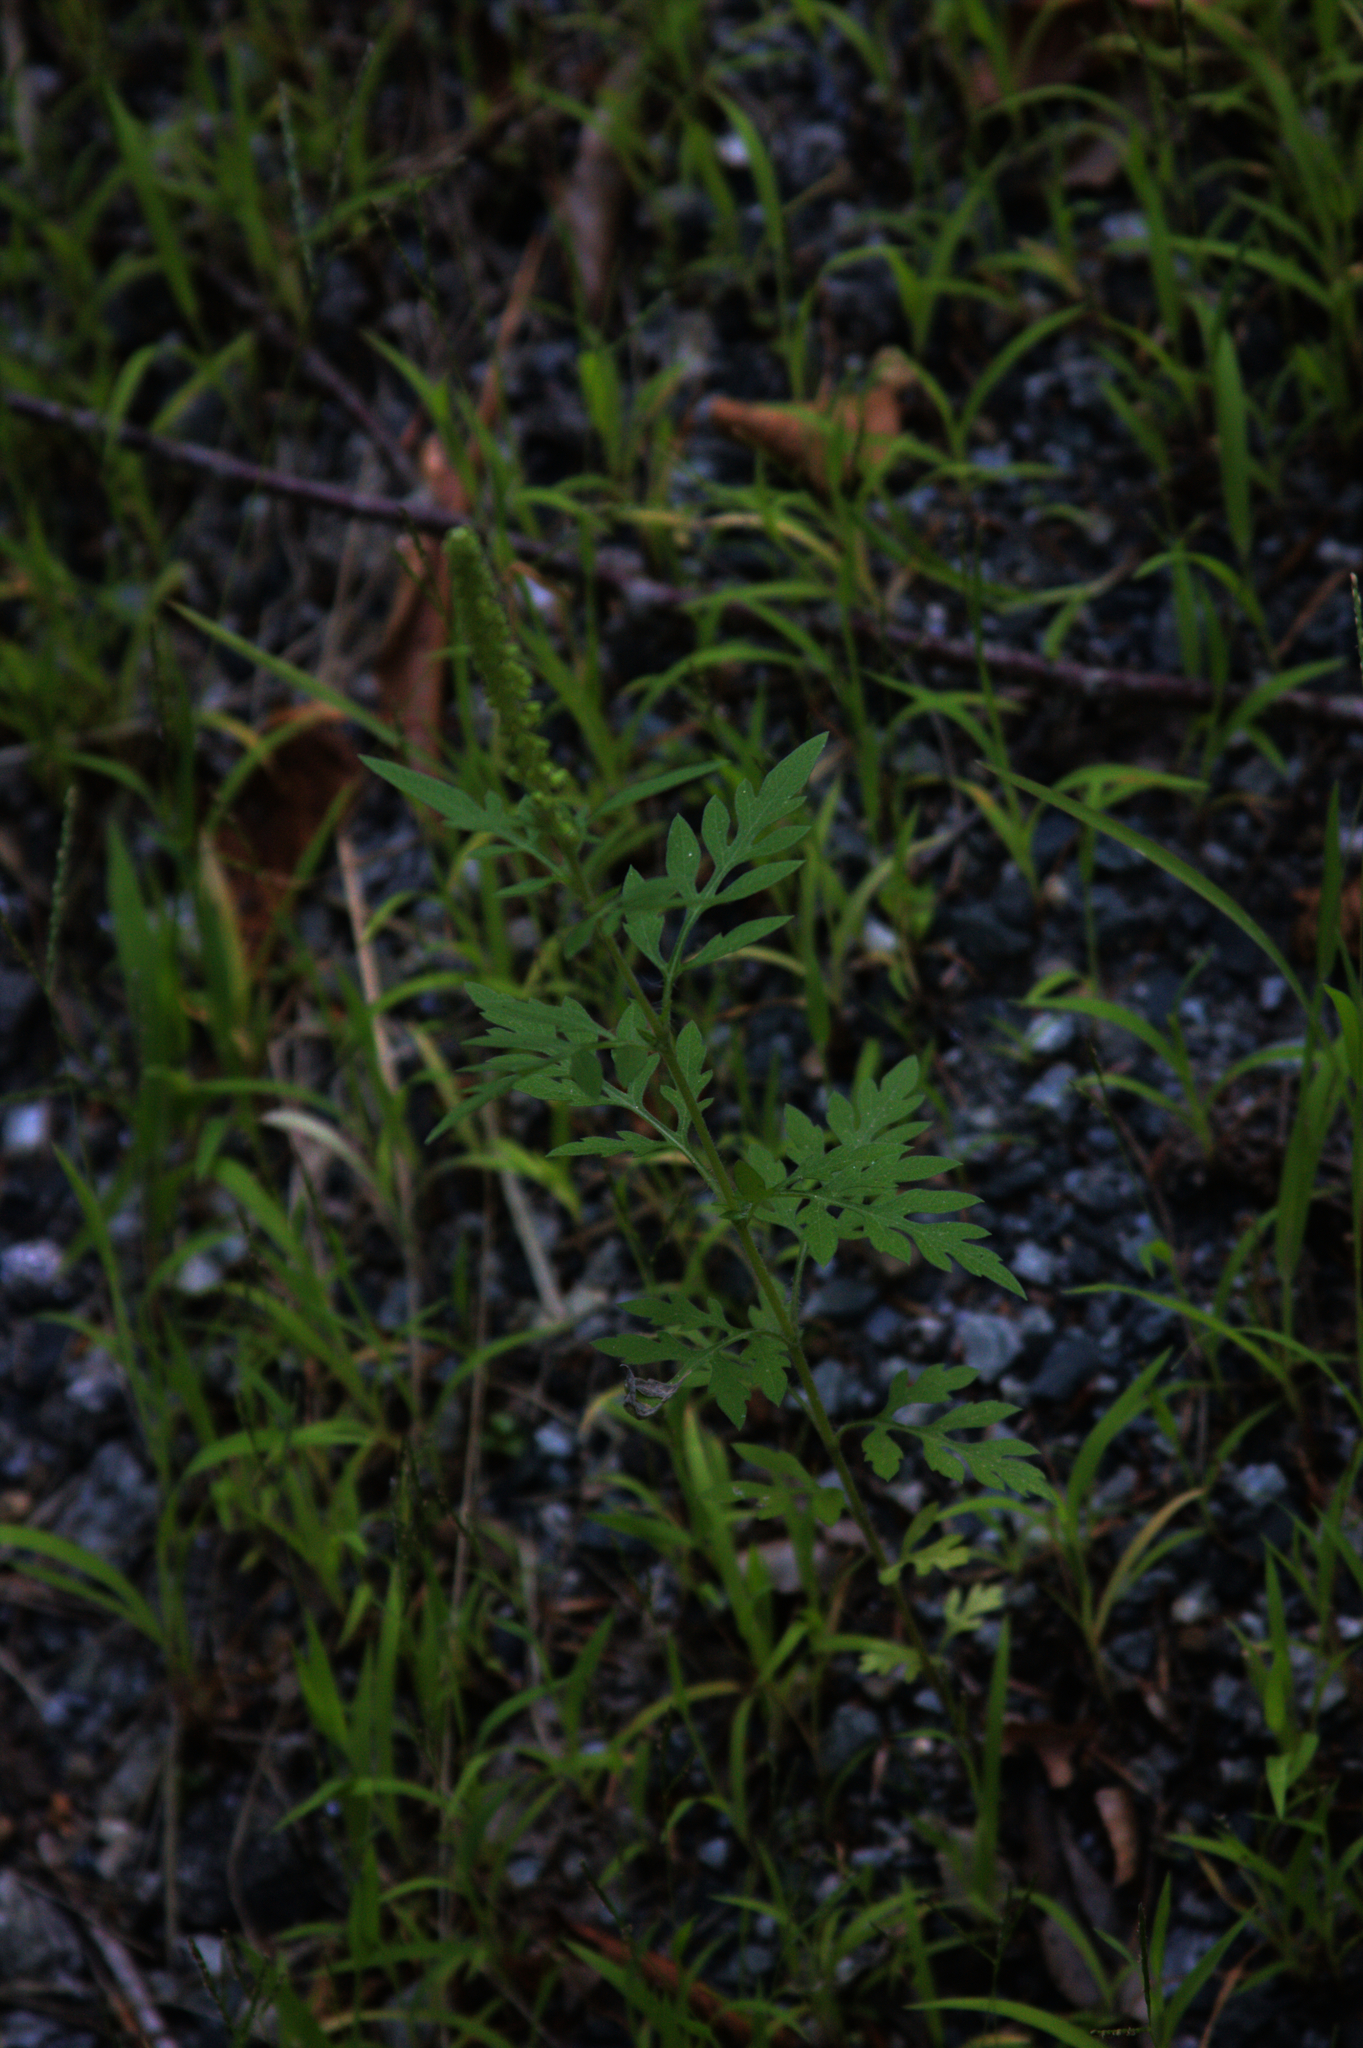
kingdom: Plantae
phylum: Tracheophyta
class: Magnoliopsida
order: Asterales
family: Asteraceae
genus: Ambrosia
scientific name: Ambrosia artemisiifolia
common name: Annual ragweed
